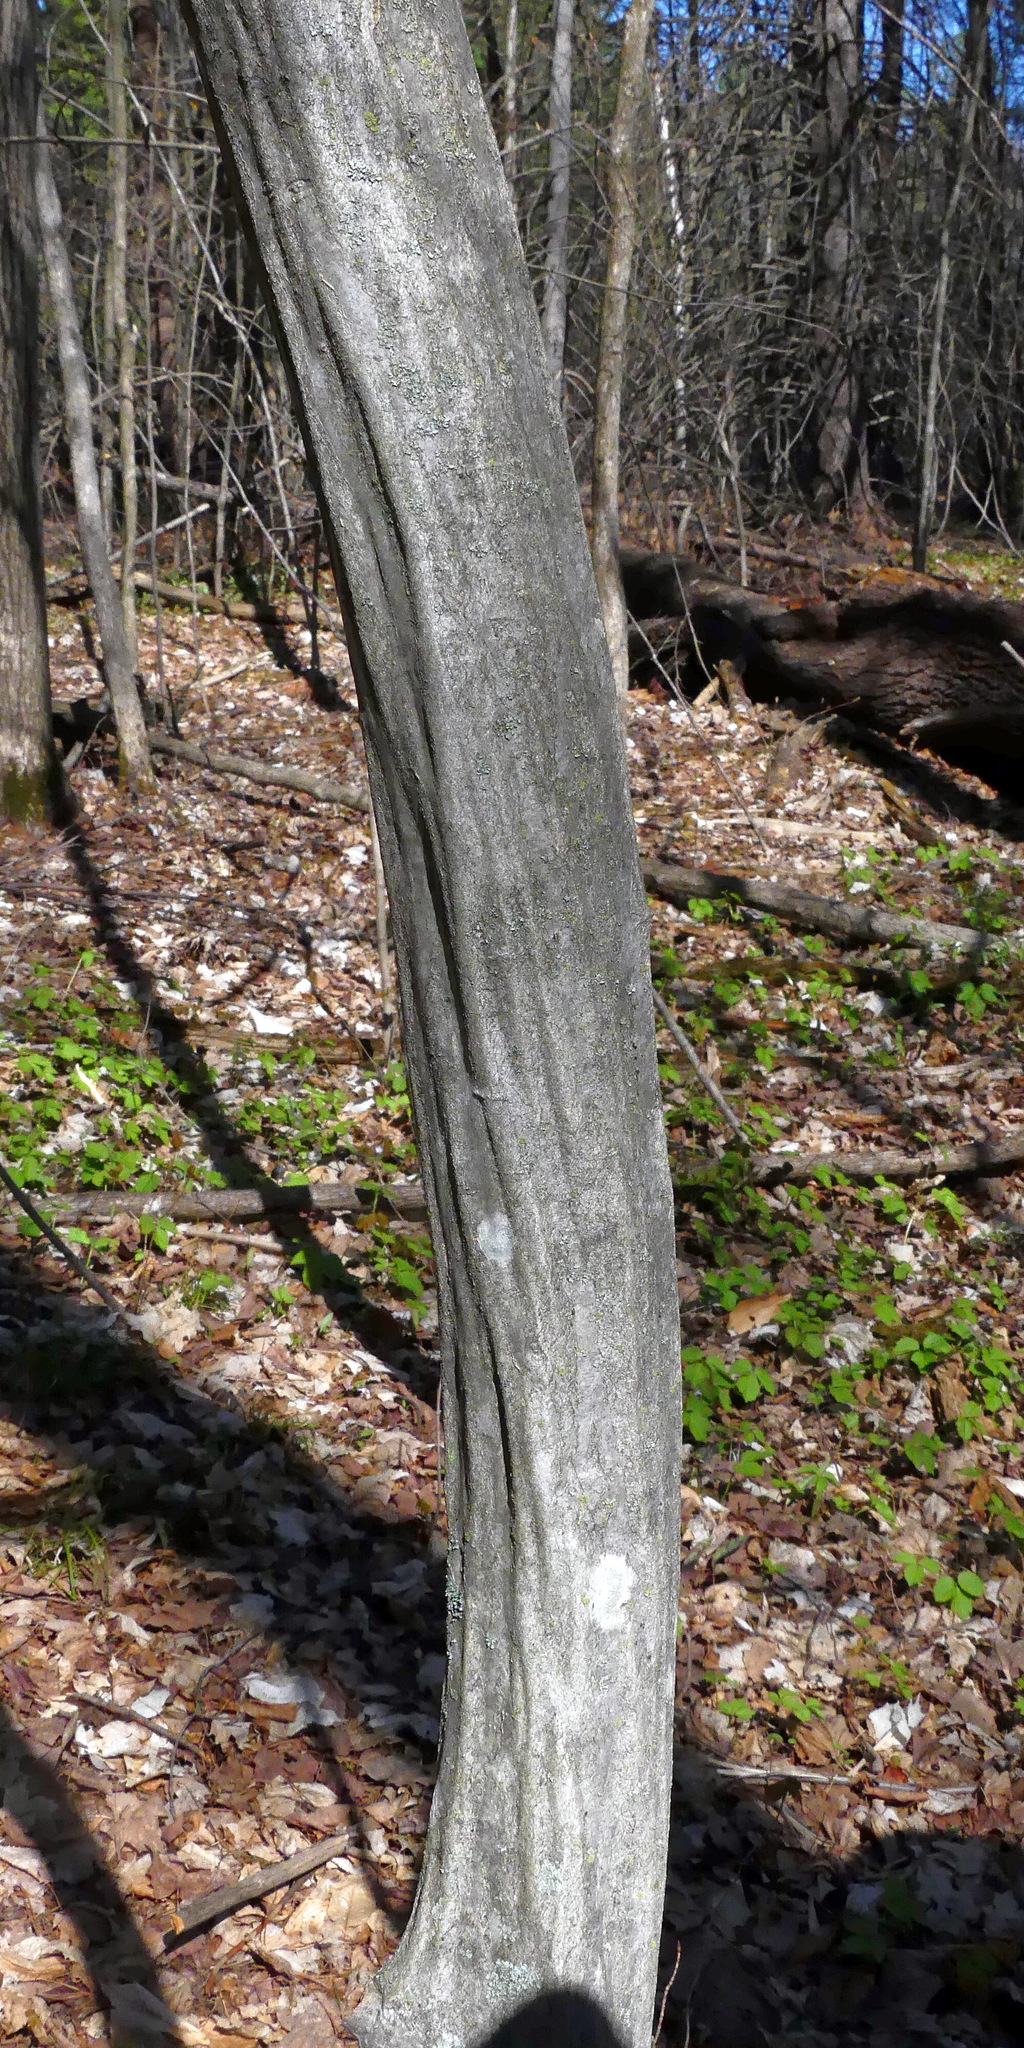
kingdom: Plantae
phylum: Tracheophyta
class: Magnoliopsida
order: Fagales
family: Betulaceae
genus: Carpinus
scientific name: Carpinus caroliniana
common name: American hornbeam
